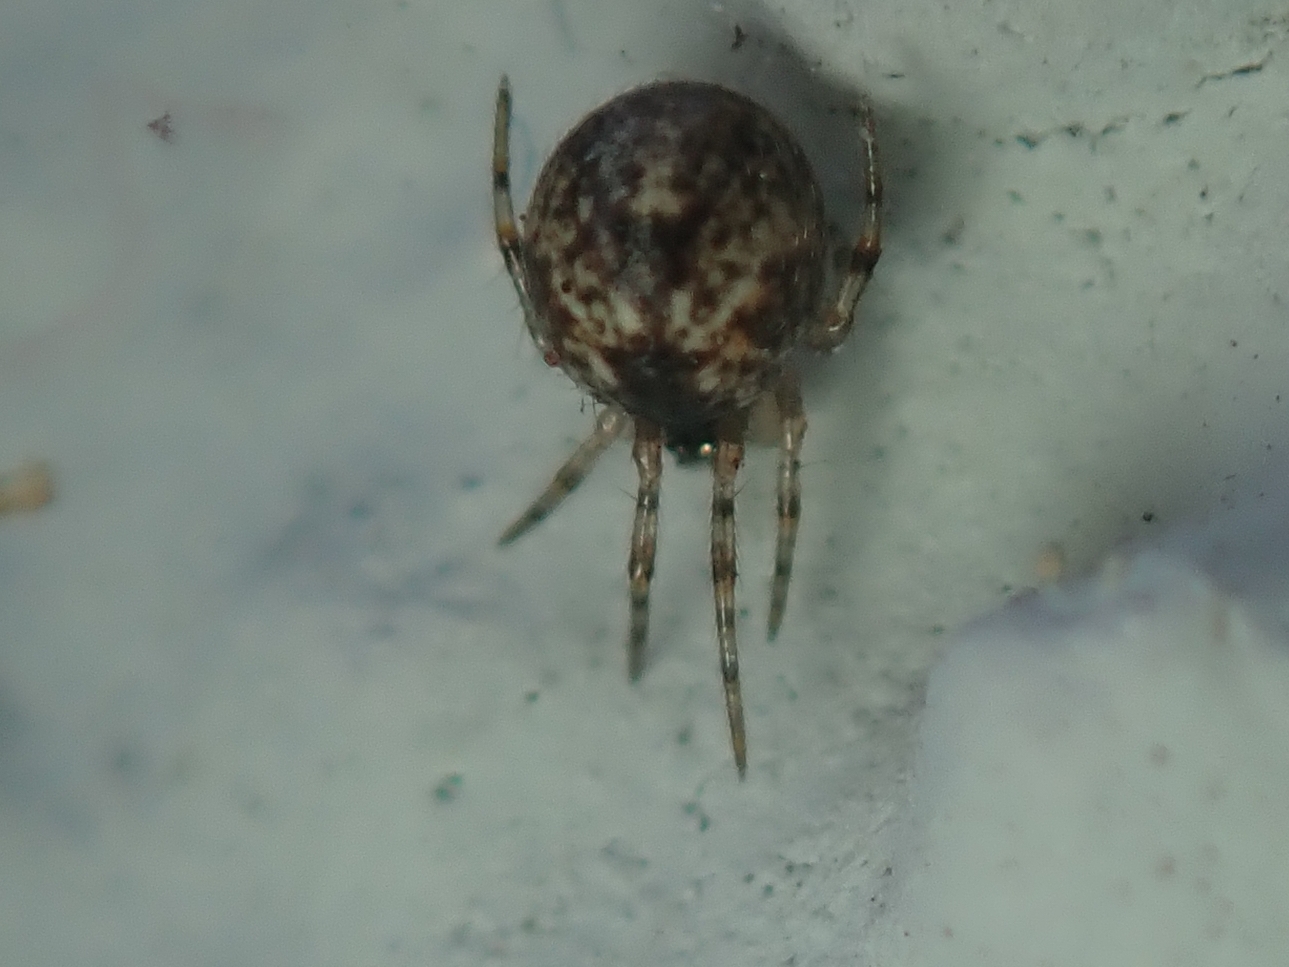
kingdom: Animalia
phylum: Arthropoda
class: Arachnida
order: Araneae
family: Theridiidae
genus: Parasteatoda
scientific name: Parasteatoda tepidariorum
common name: Common house spider
